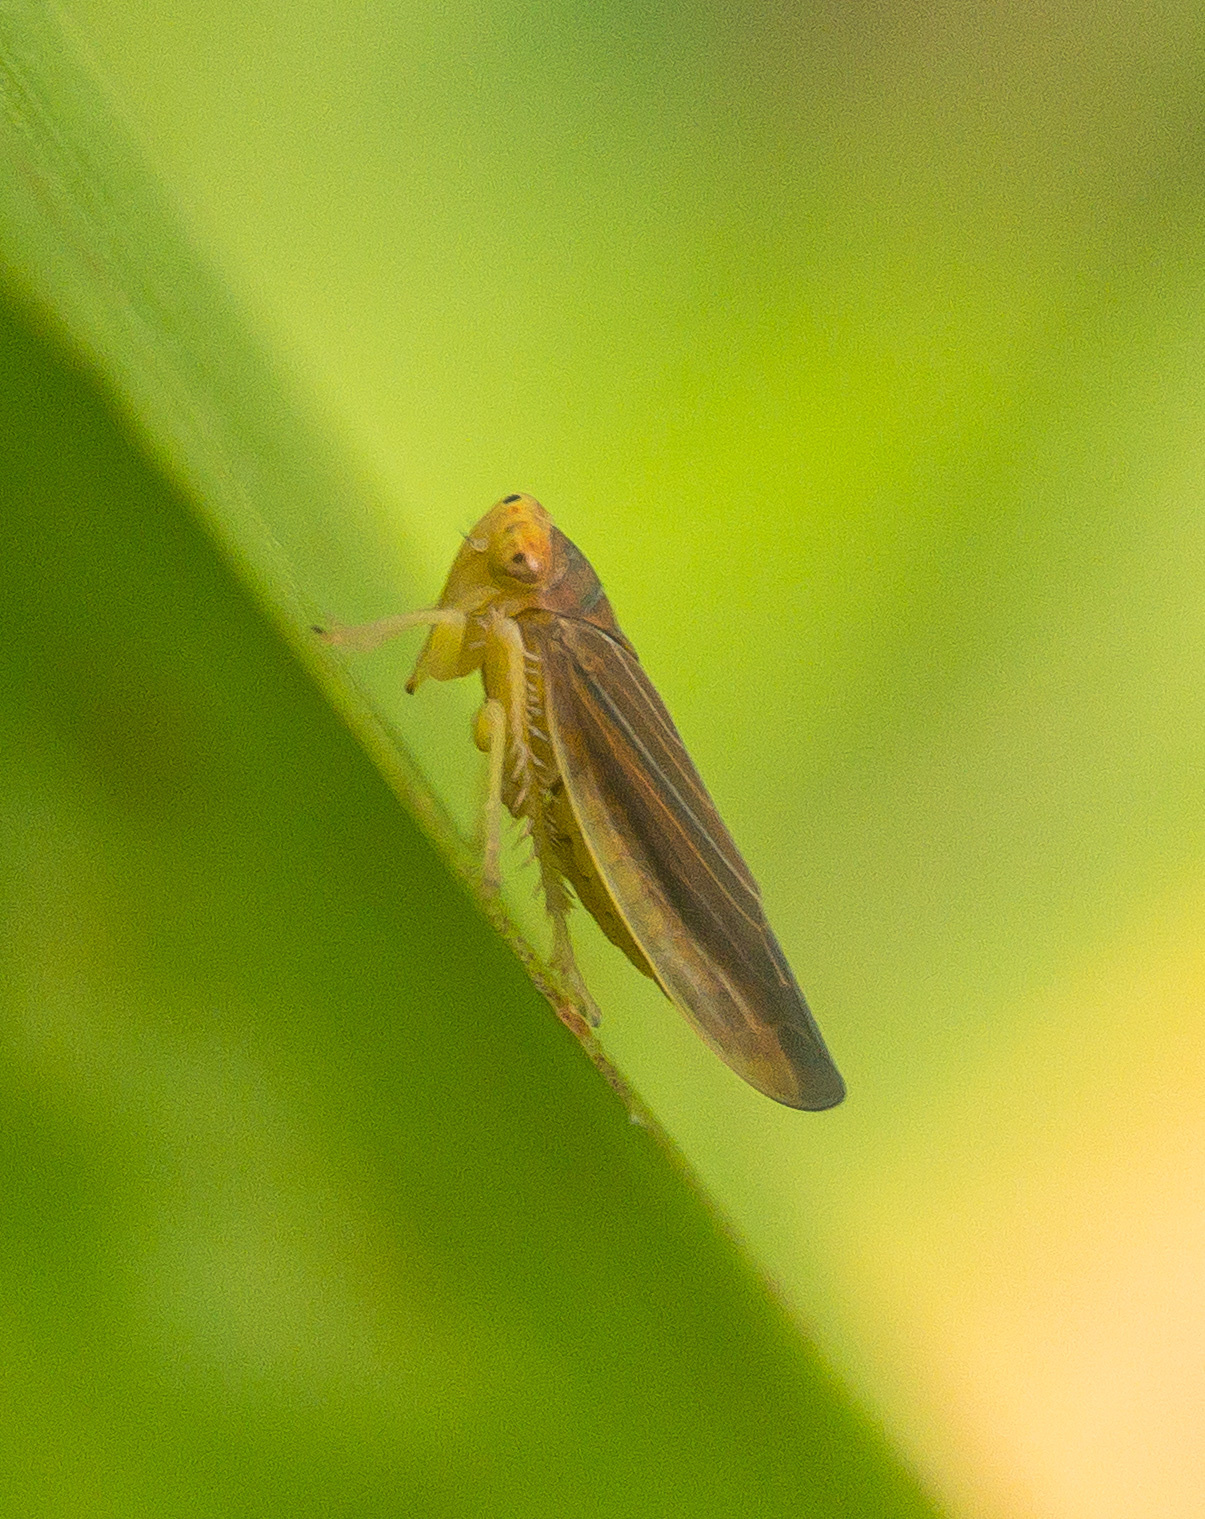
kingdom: Animalia
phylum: Arthropoda
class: Insecta
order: Hemiptera
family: Cicadellidae
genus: Idiodonus
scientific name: Idiodonus kennicotti
